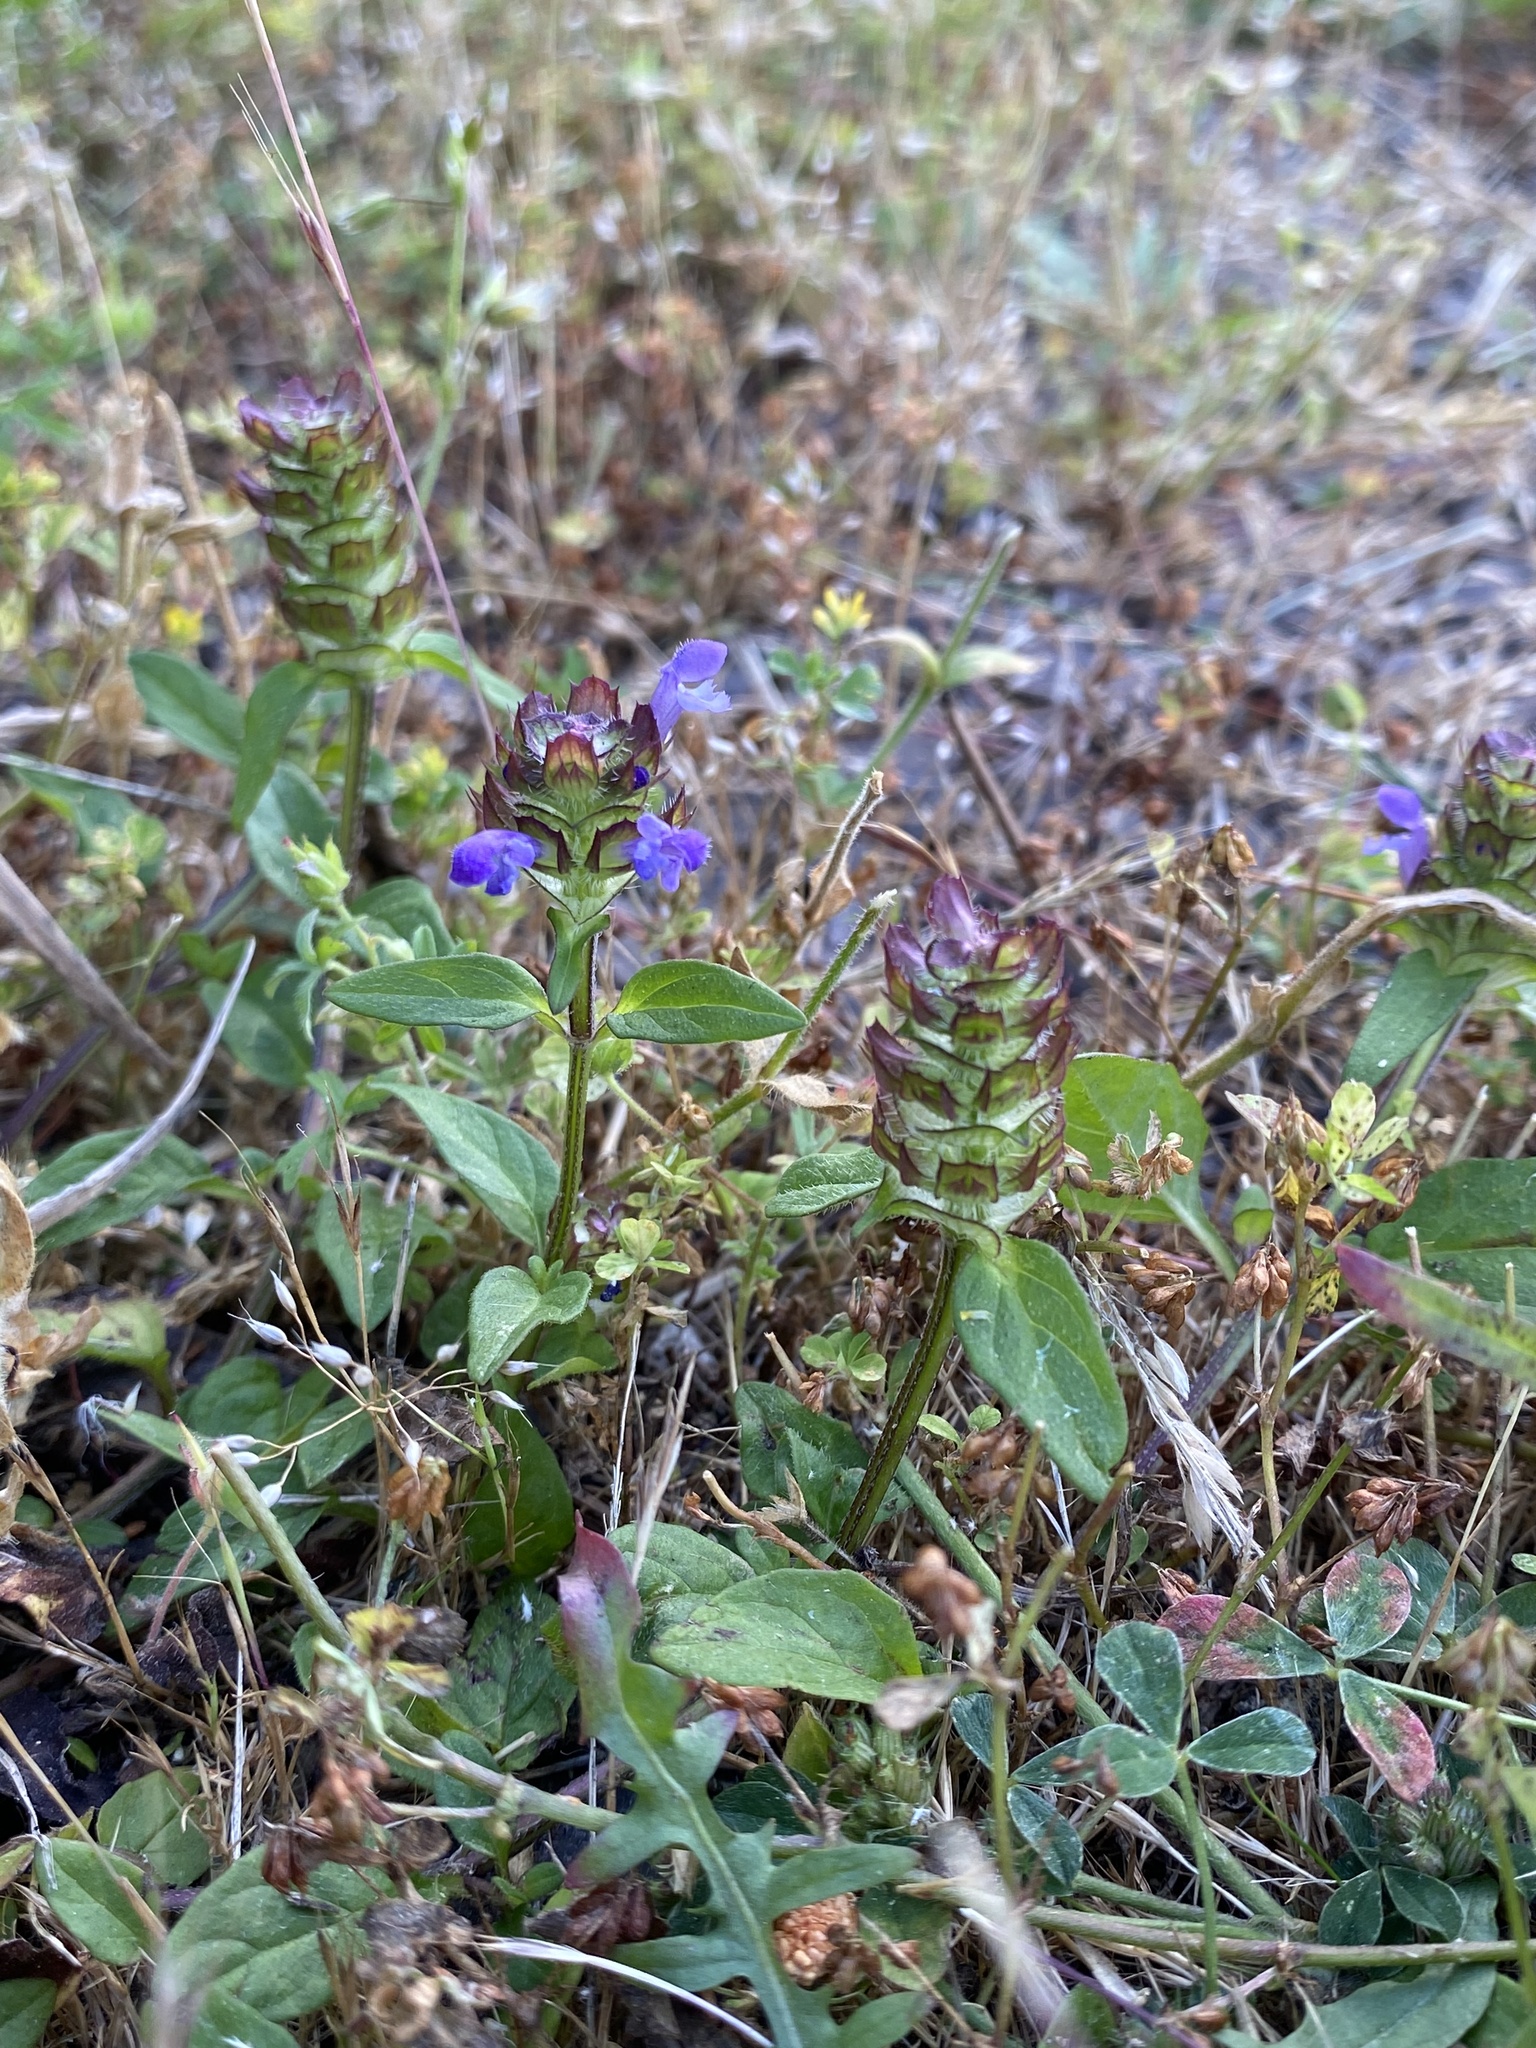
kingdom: Plantae
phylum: Tracheophyta
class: Magnoliopsida
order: Lamiales
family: Lamiaceae
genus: Prunella
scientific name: Prunella vulgaris
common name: Heal-all
